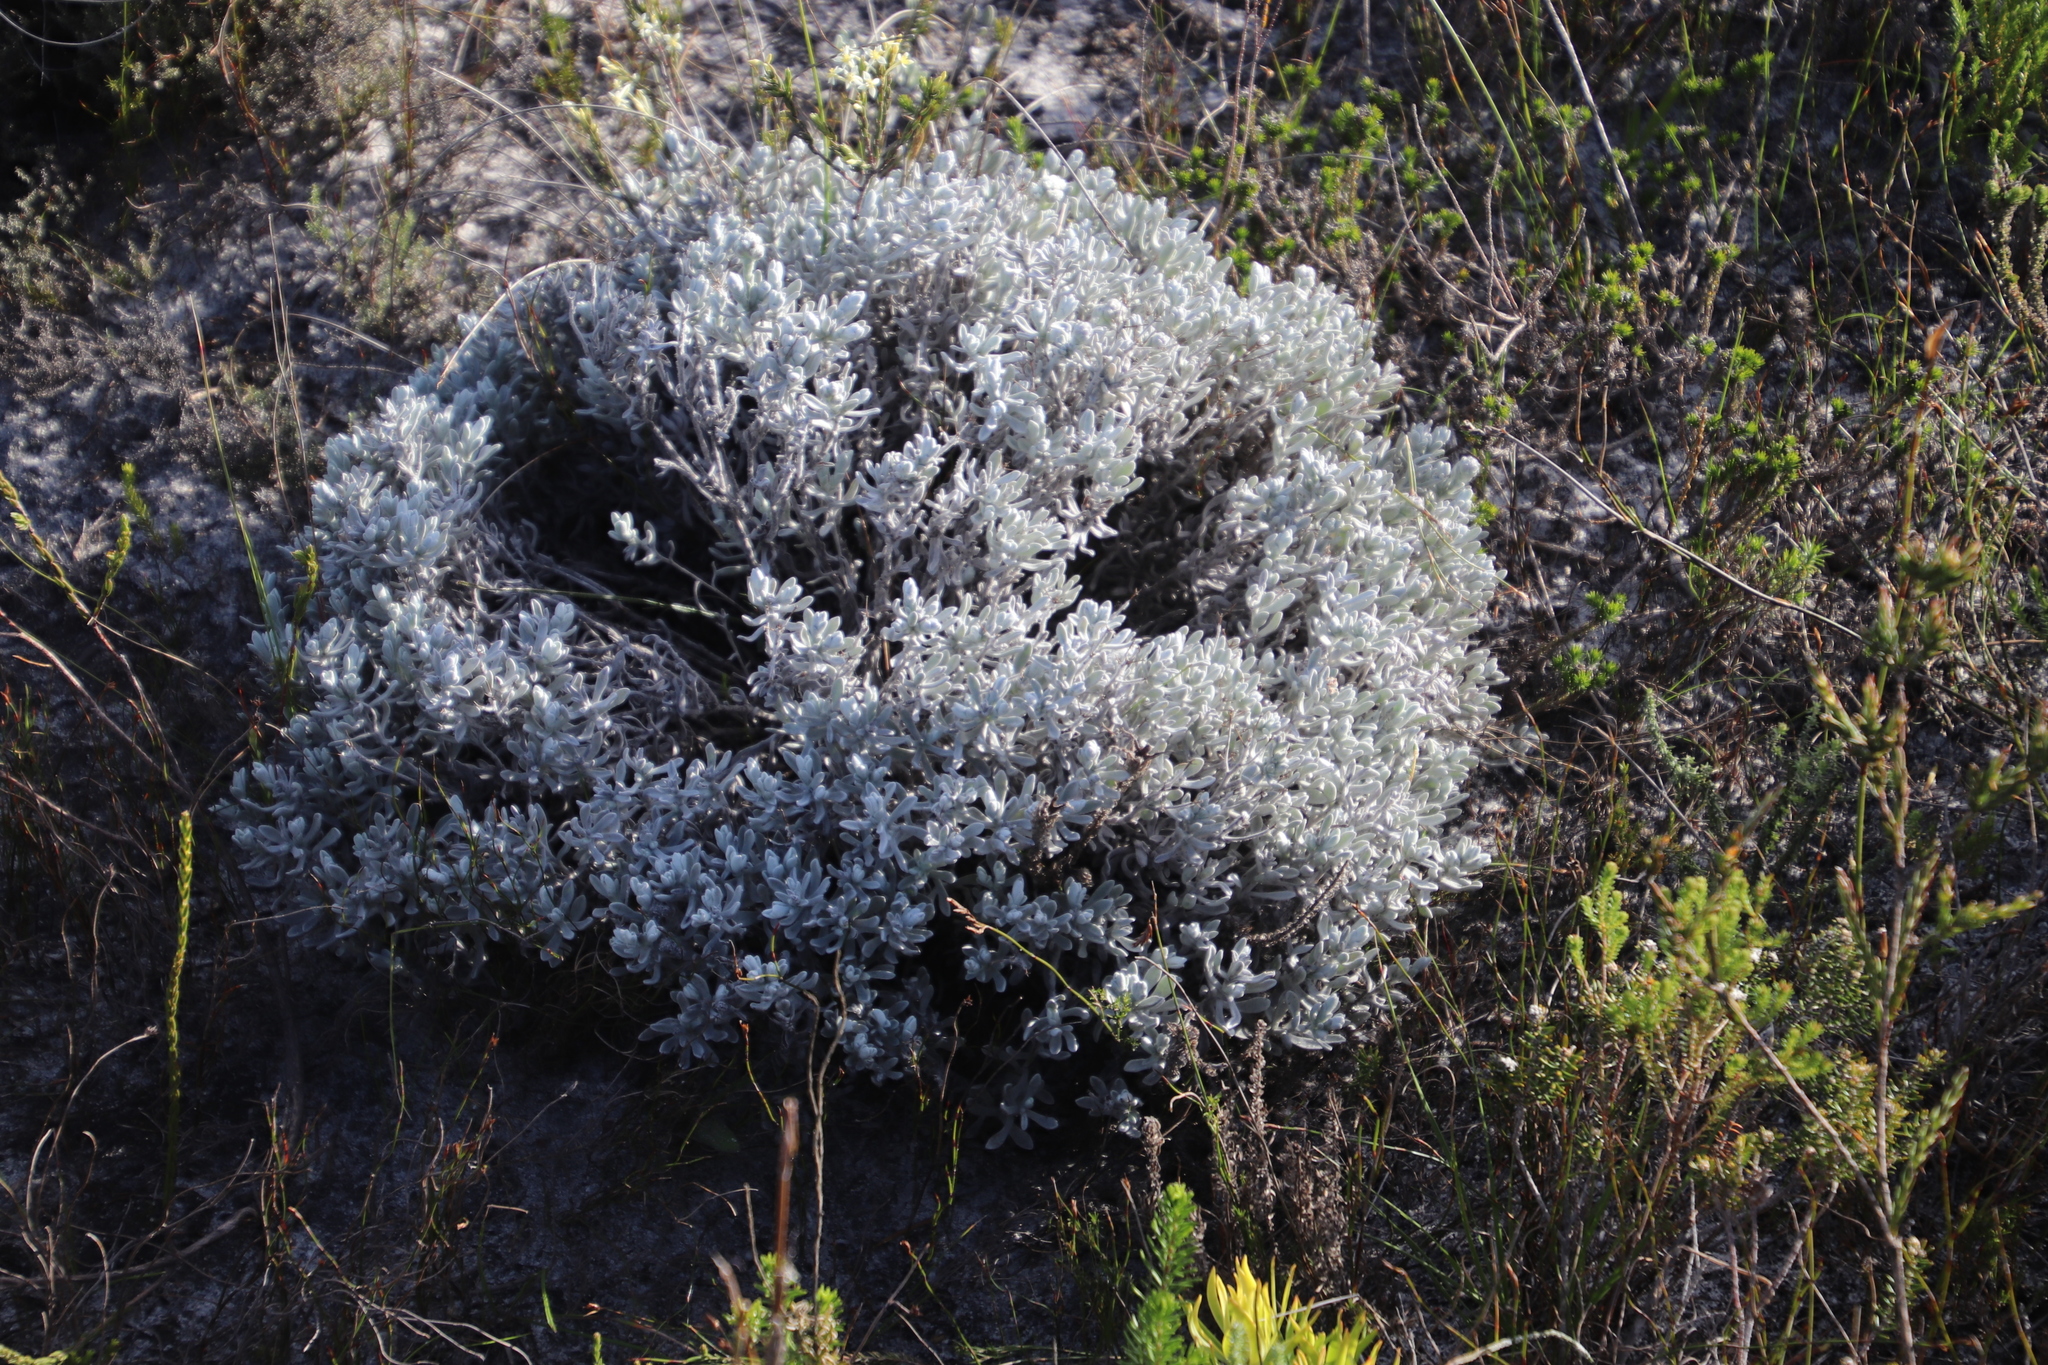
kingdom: Plantae
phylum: Tracheophyta
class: Magnoliopsida
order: Asterales
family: Asteraceae
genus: Petalacte
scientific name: Petalacte coronata
